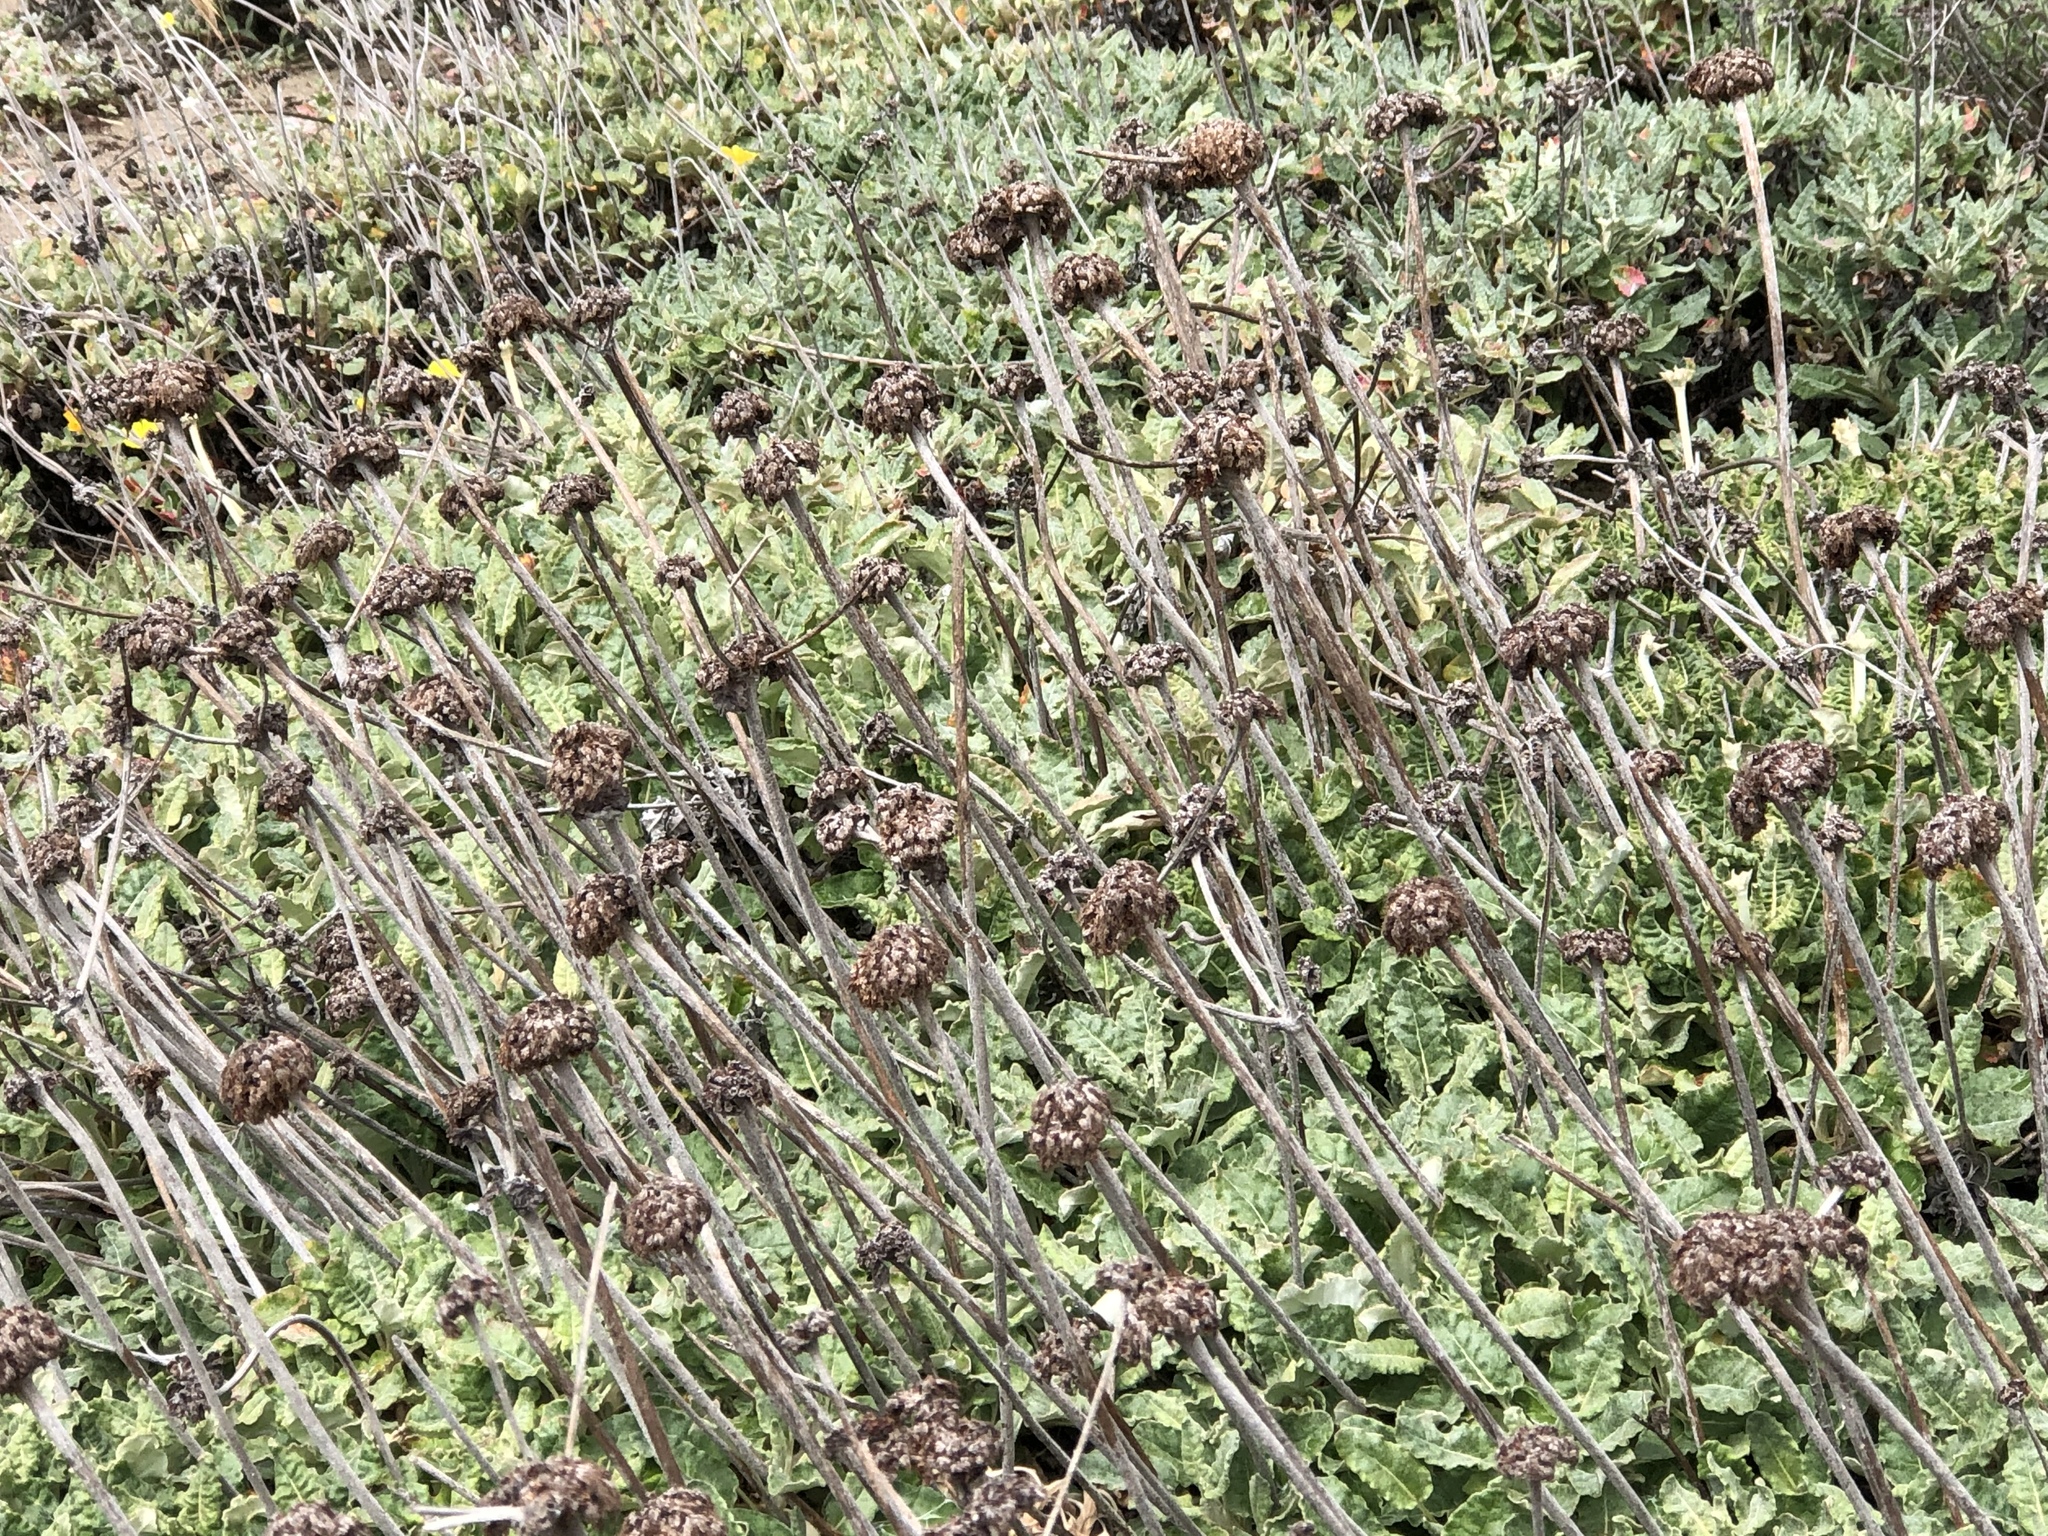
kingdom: Plantae
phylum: Tracheophyta
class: Magnoliopsida
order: Caryophyllales
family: Polygonaceae
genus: Eriogonum
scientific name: Eriogonum latifolium
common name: Seaside wild buckwheat
